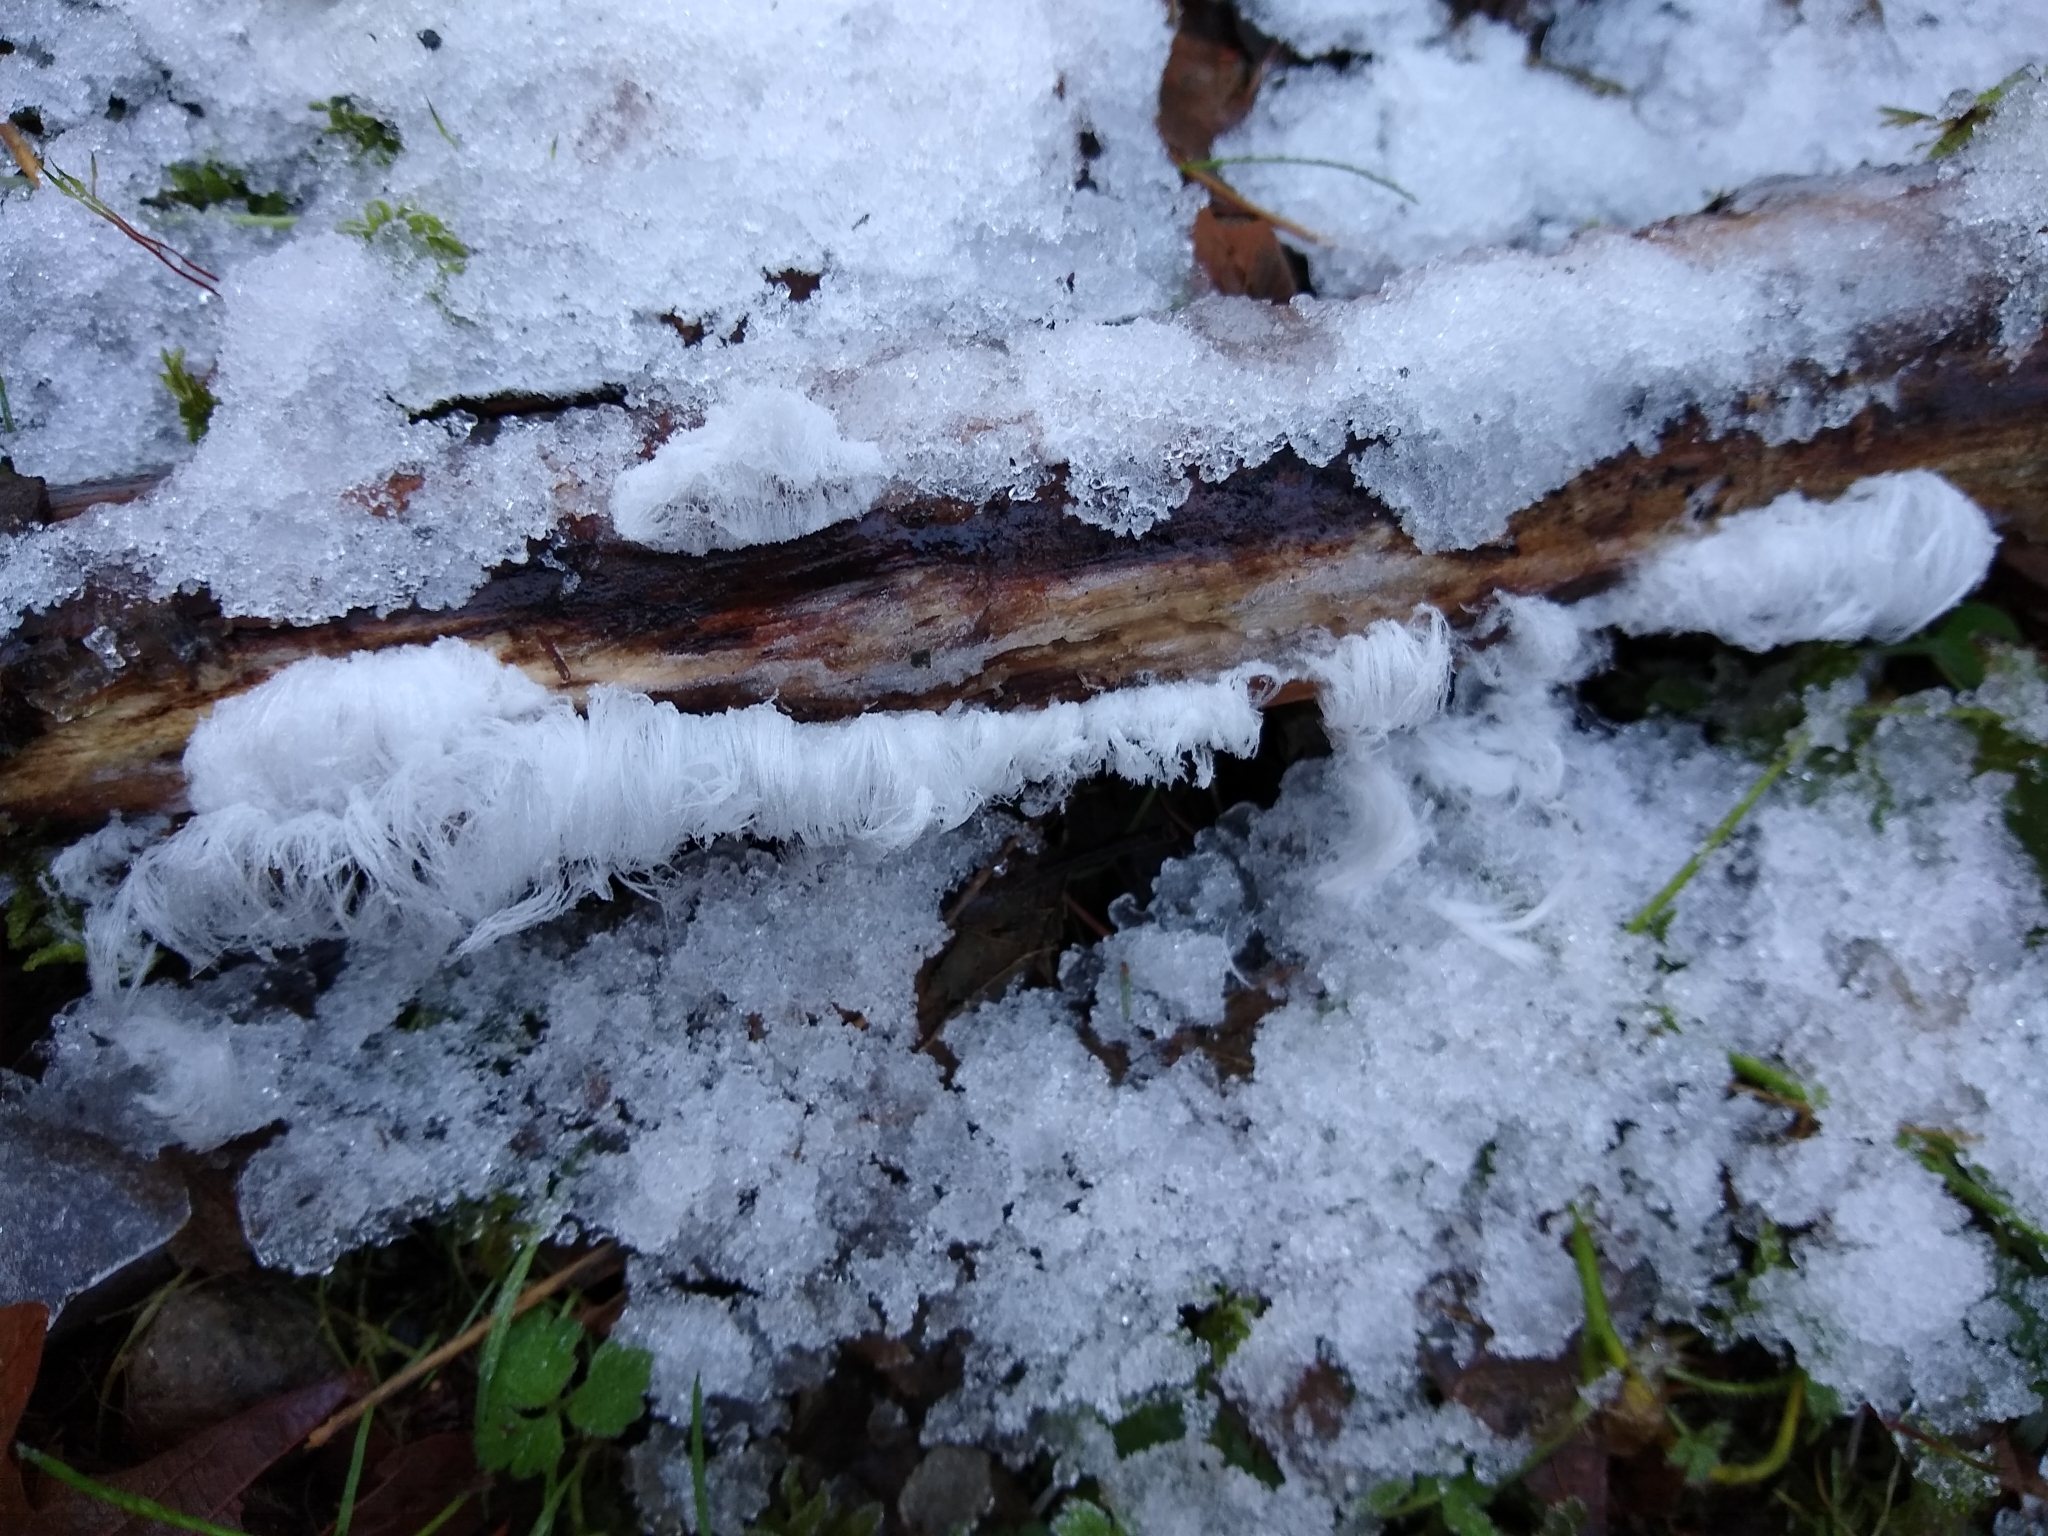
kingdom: Fungi
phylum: Basidiomycota
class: Agaricomycetes
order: Auriculariales
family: Auriculariaceae
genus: Exidiopsis
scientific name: Exidiopsis effusa
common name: Hair ice crust
